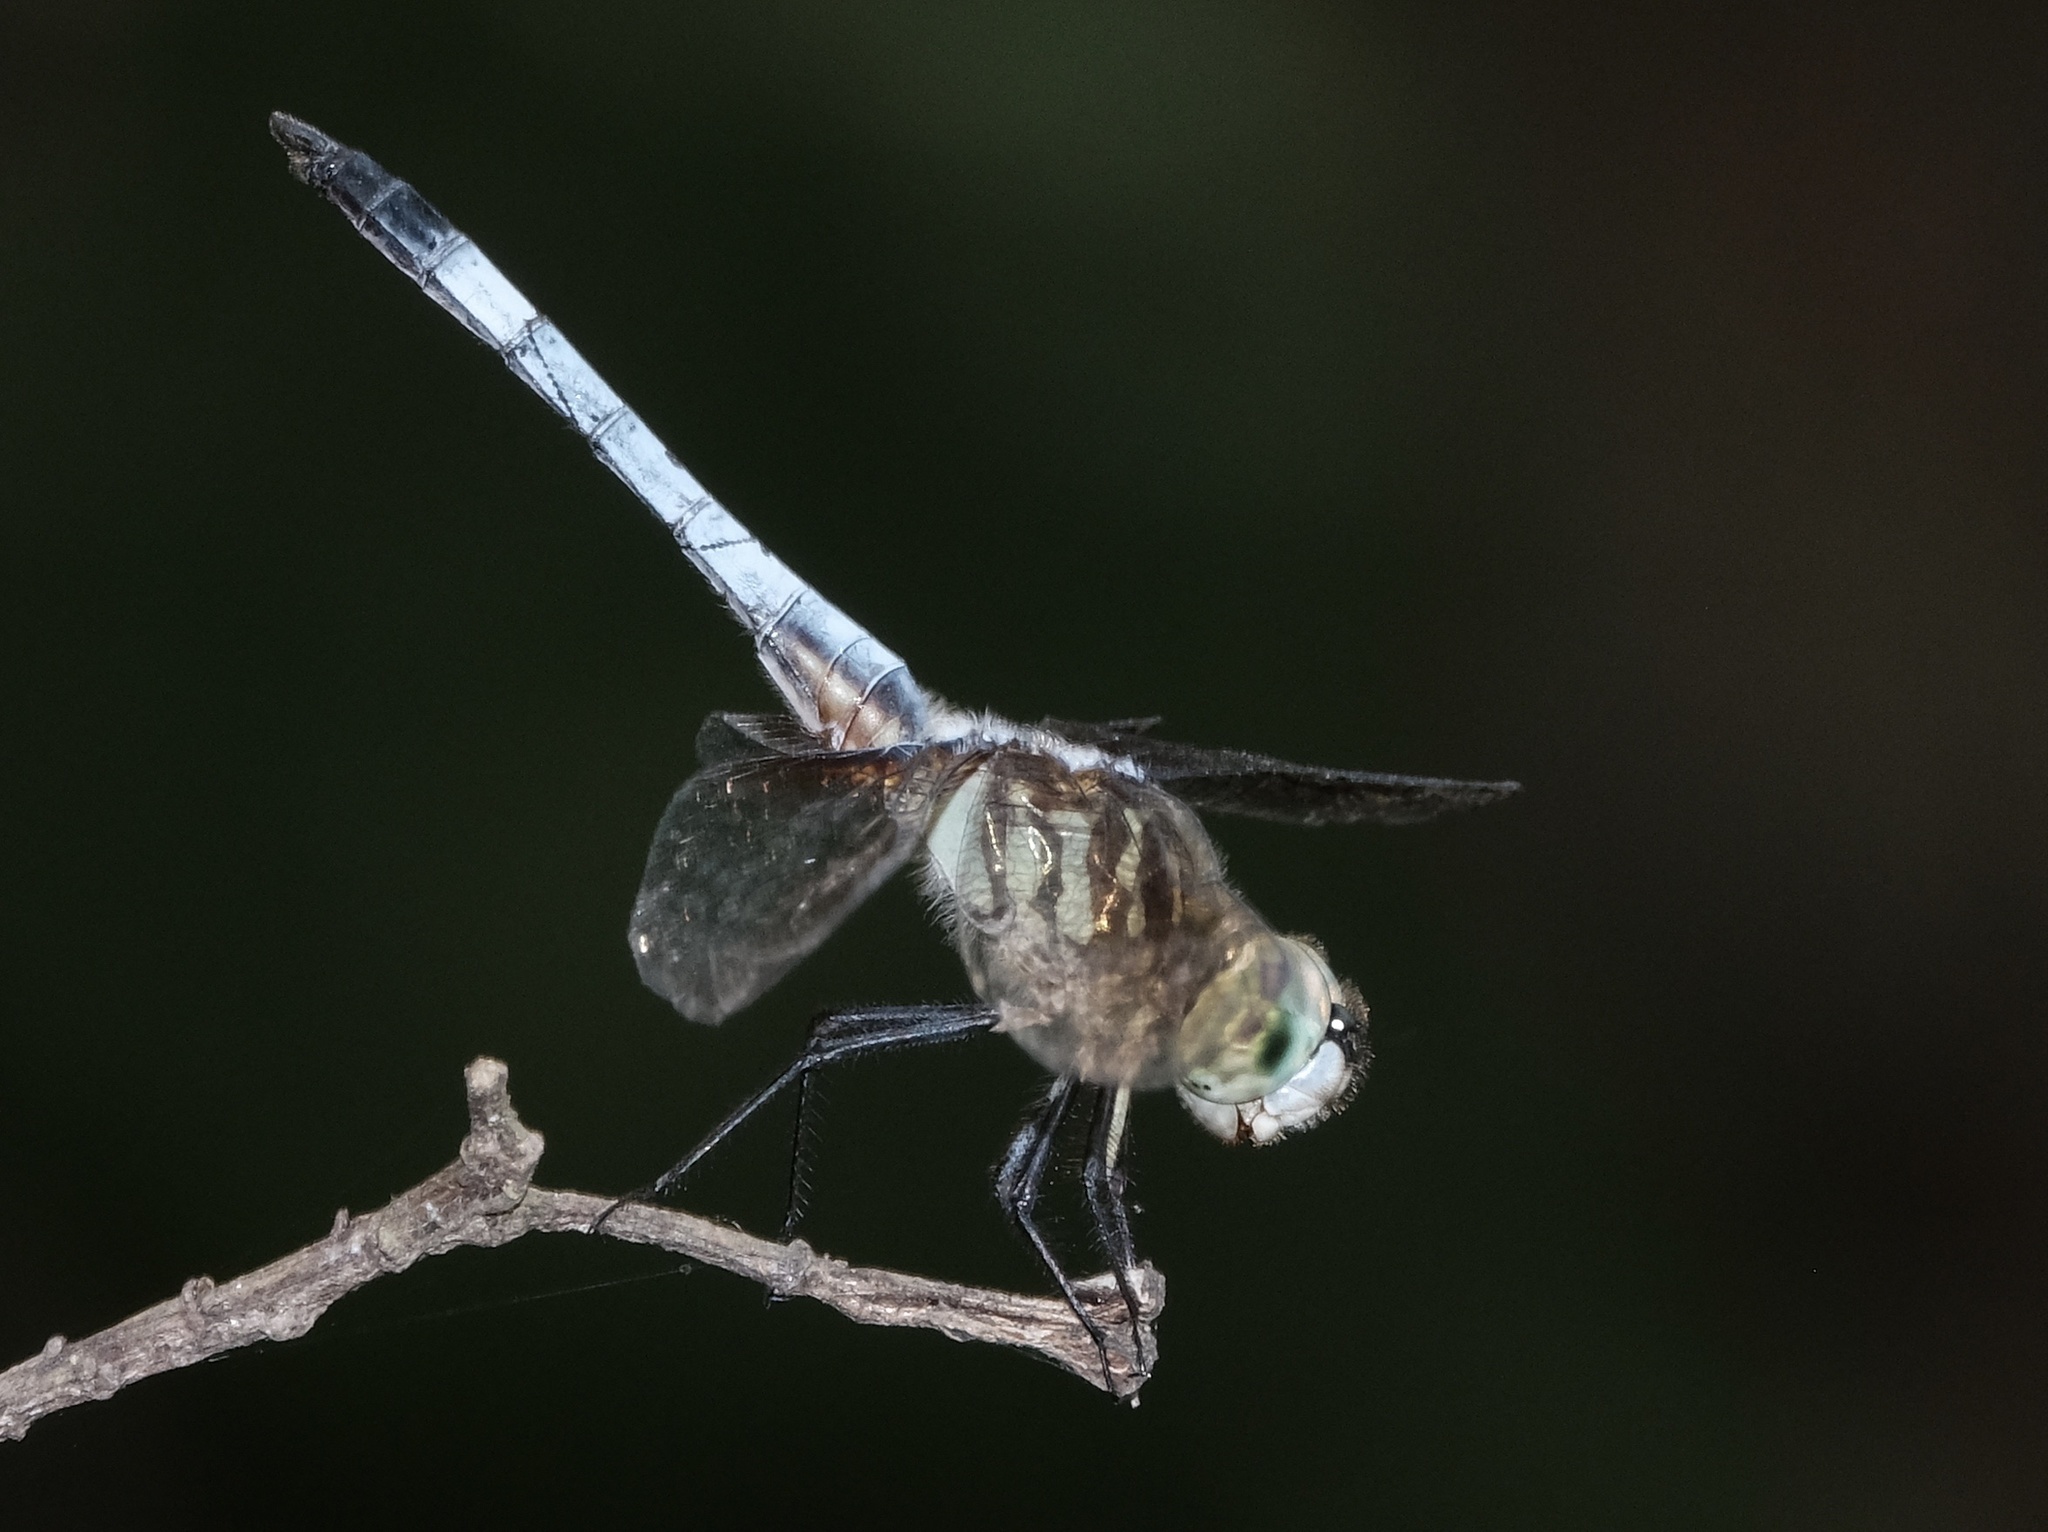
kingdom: Animalia
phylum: Arthropoda
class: Insecta
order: Odonata
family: Libellulidae
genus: Pachydiplax
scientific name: Pachydiplax longipennis
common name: Blue dasher
